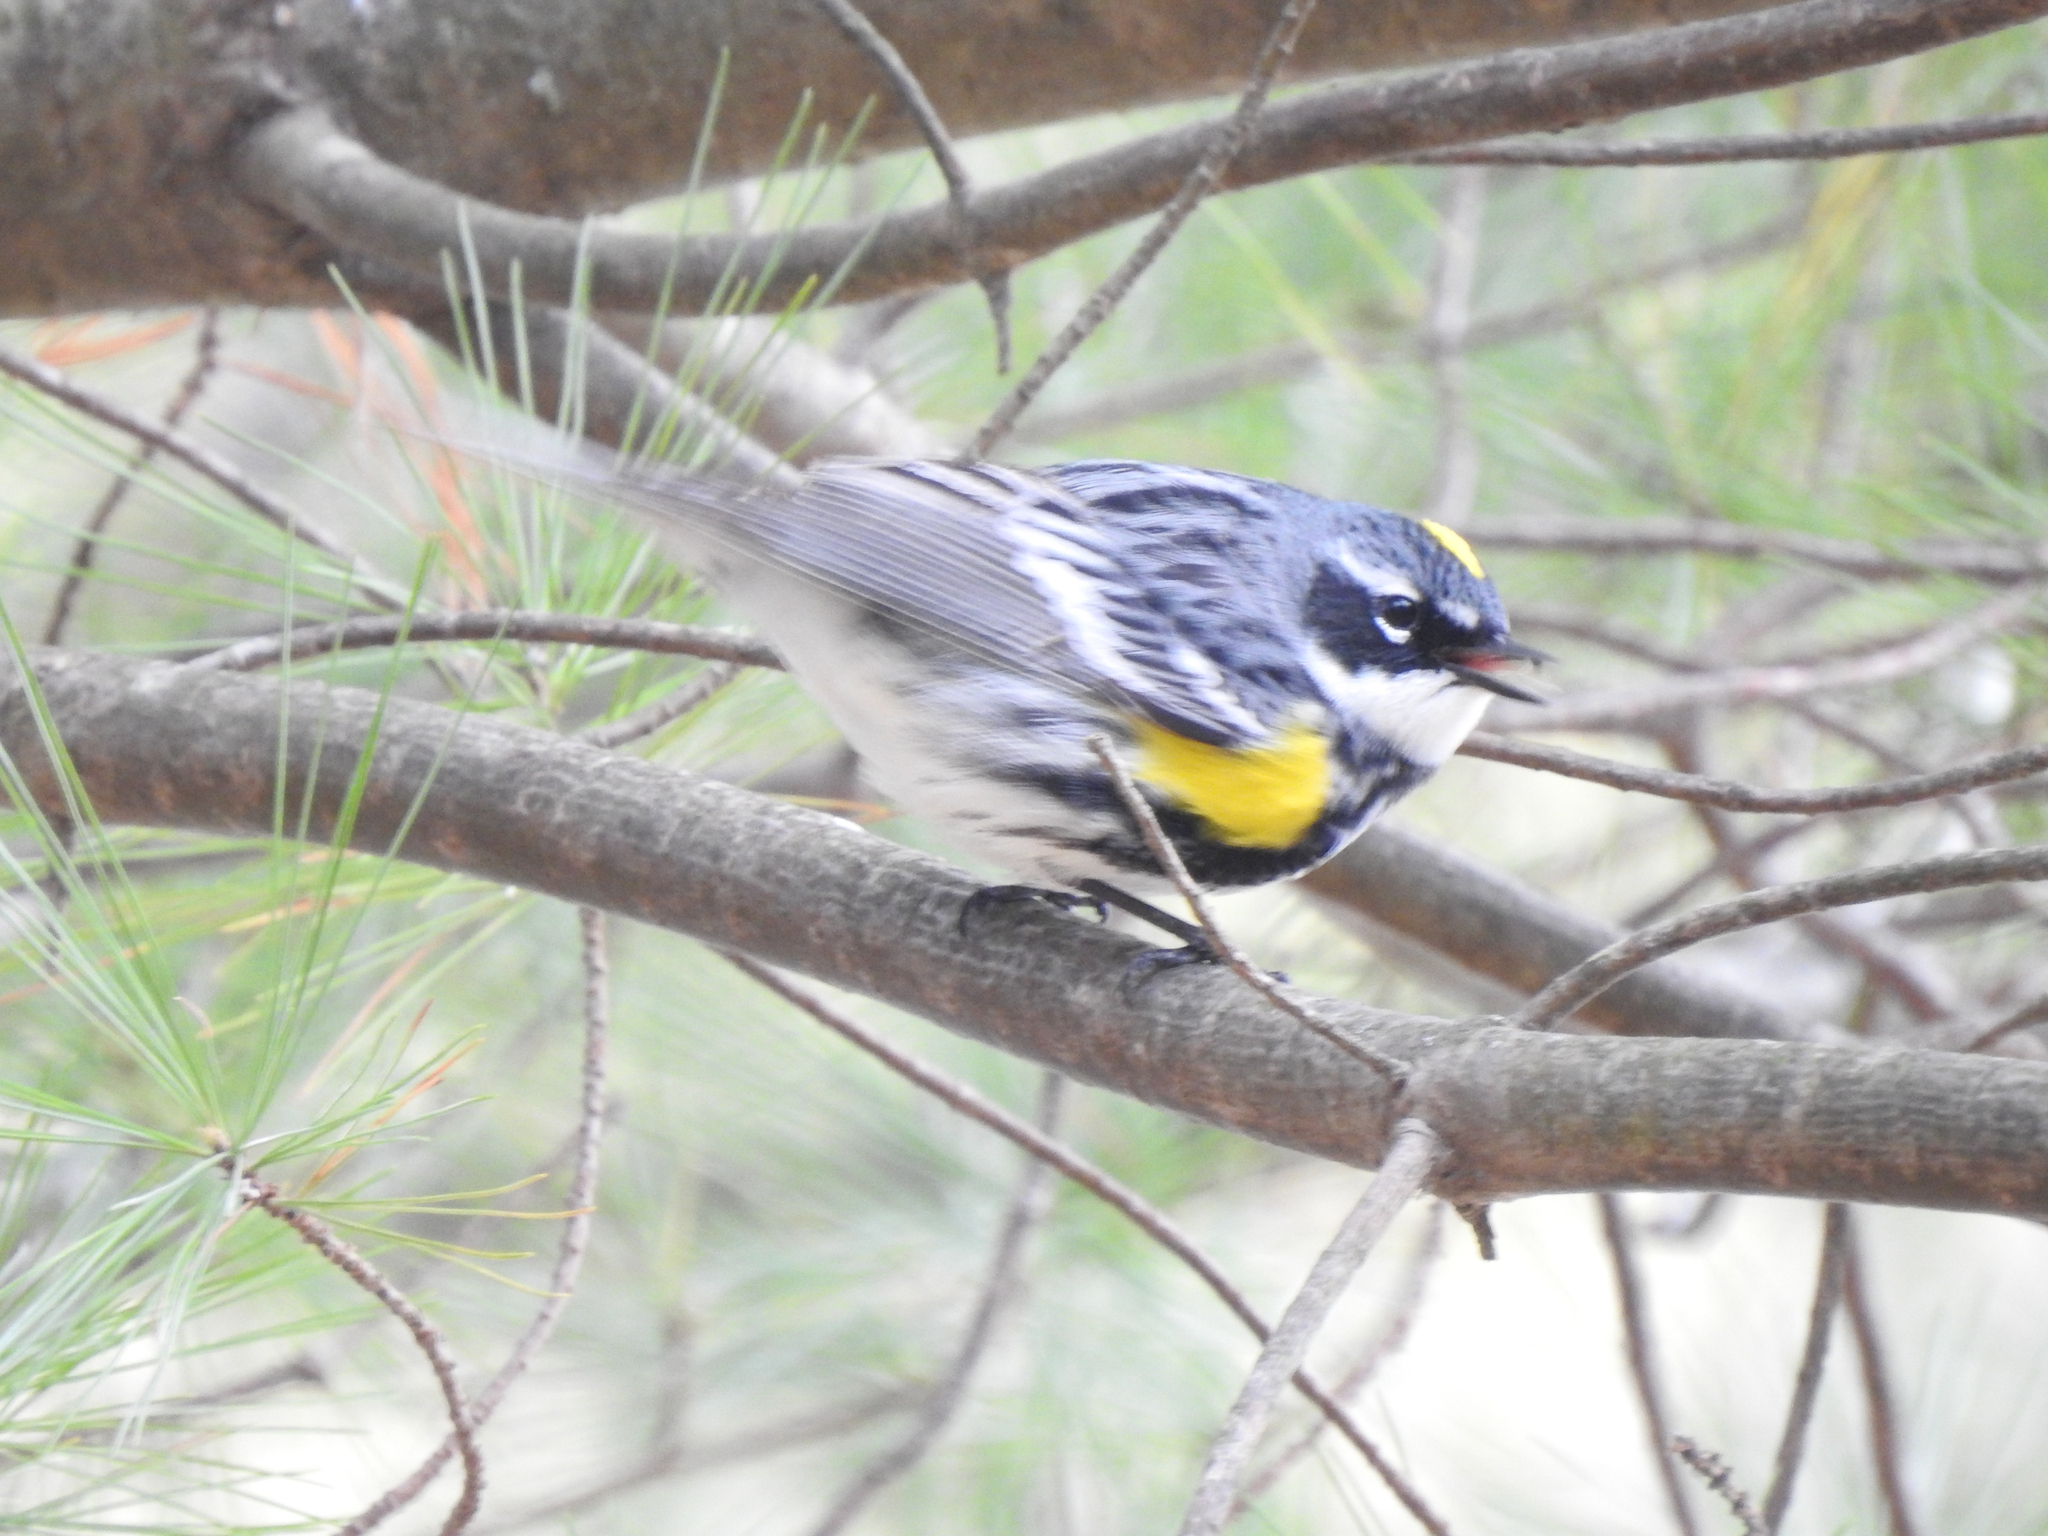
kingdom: Animalia
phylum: Chordata
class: Aves
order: Passeriformes
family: Parulidae
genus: Setophaga
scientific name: Setophaga coronata
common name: Myrtle warbler
